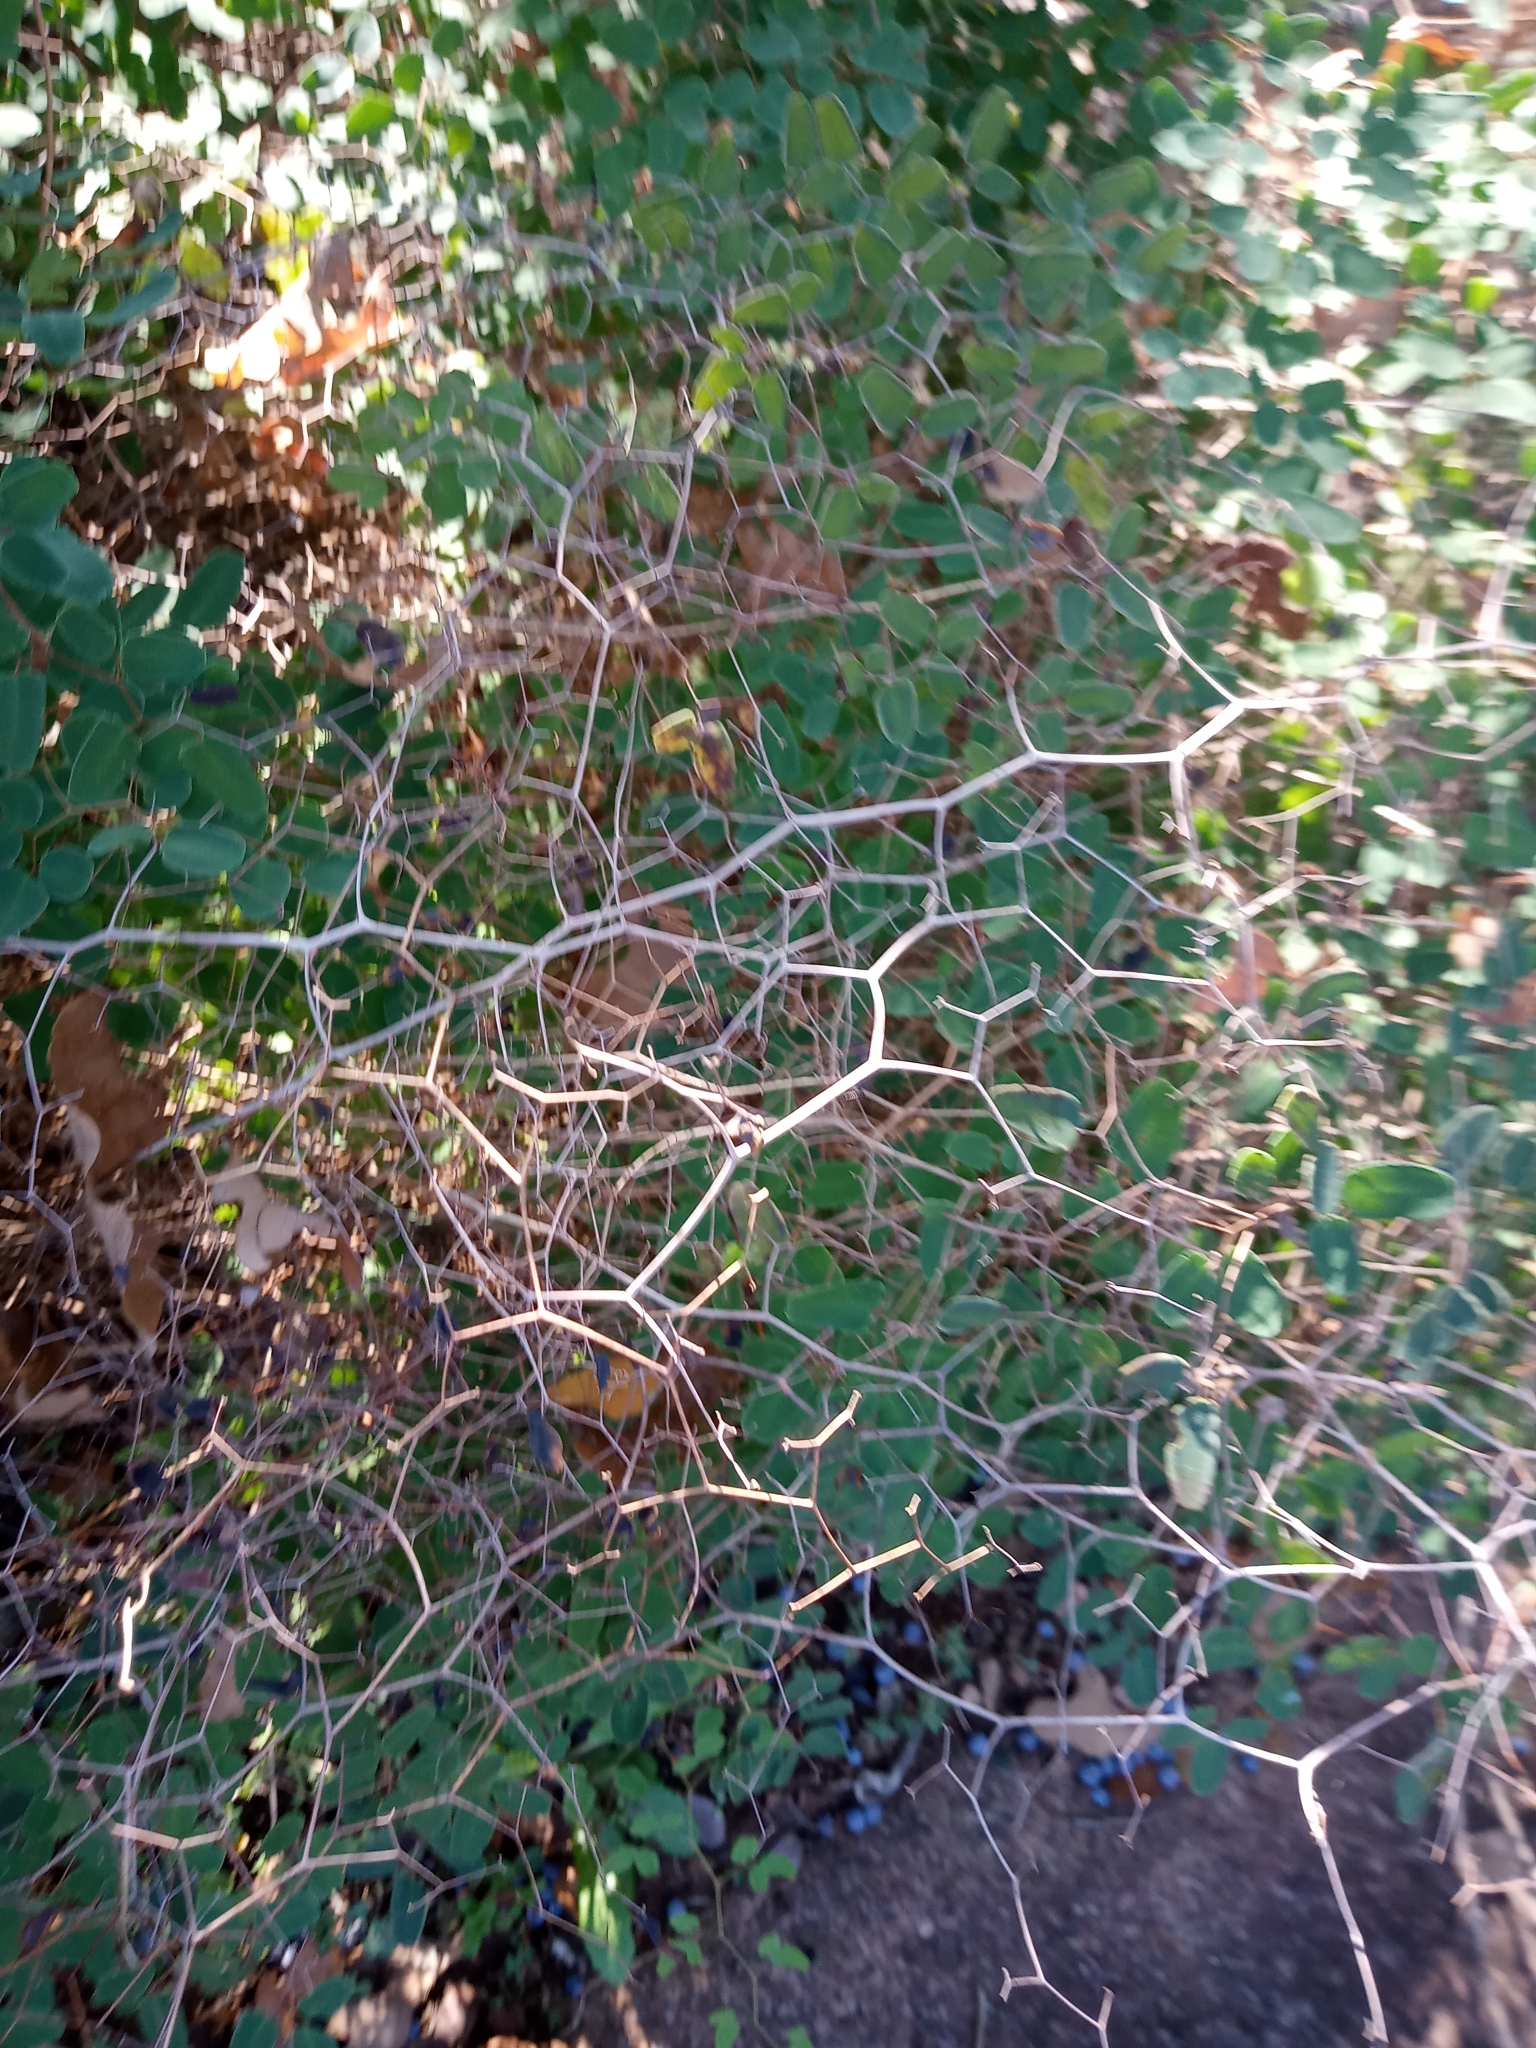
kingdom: Plantae
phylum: Tracheophyta
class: Polypodiopsida
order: Polypodiales
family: Pteridaceae
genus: Pellaea
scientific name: Pellaea ovata
